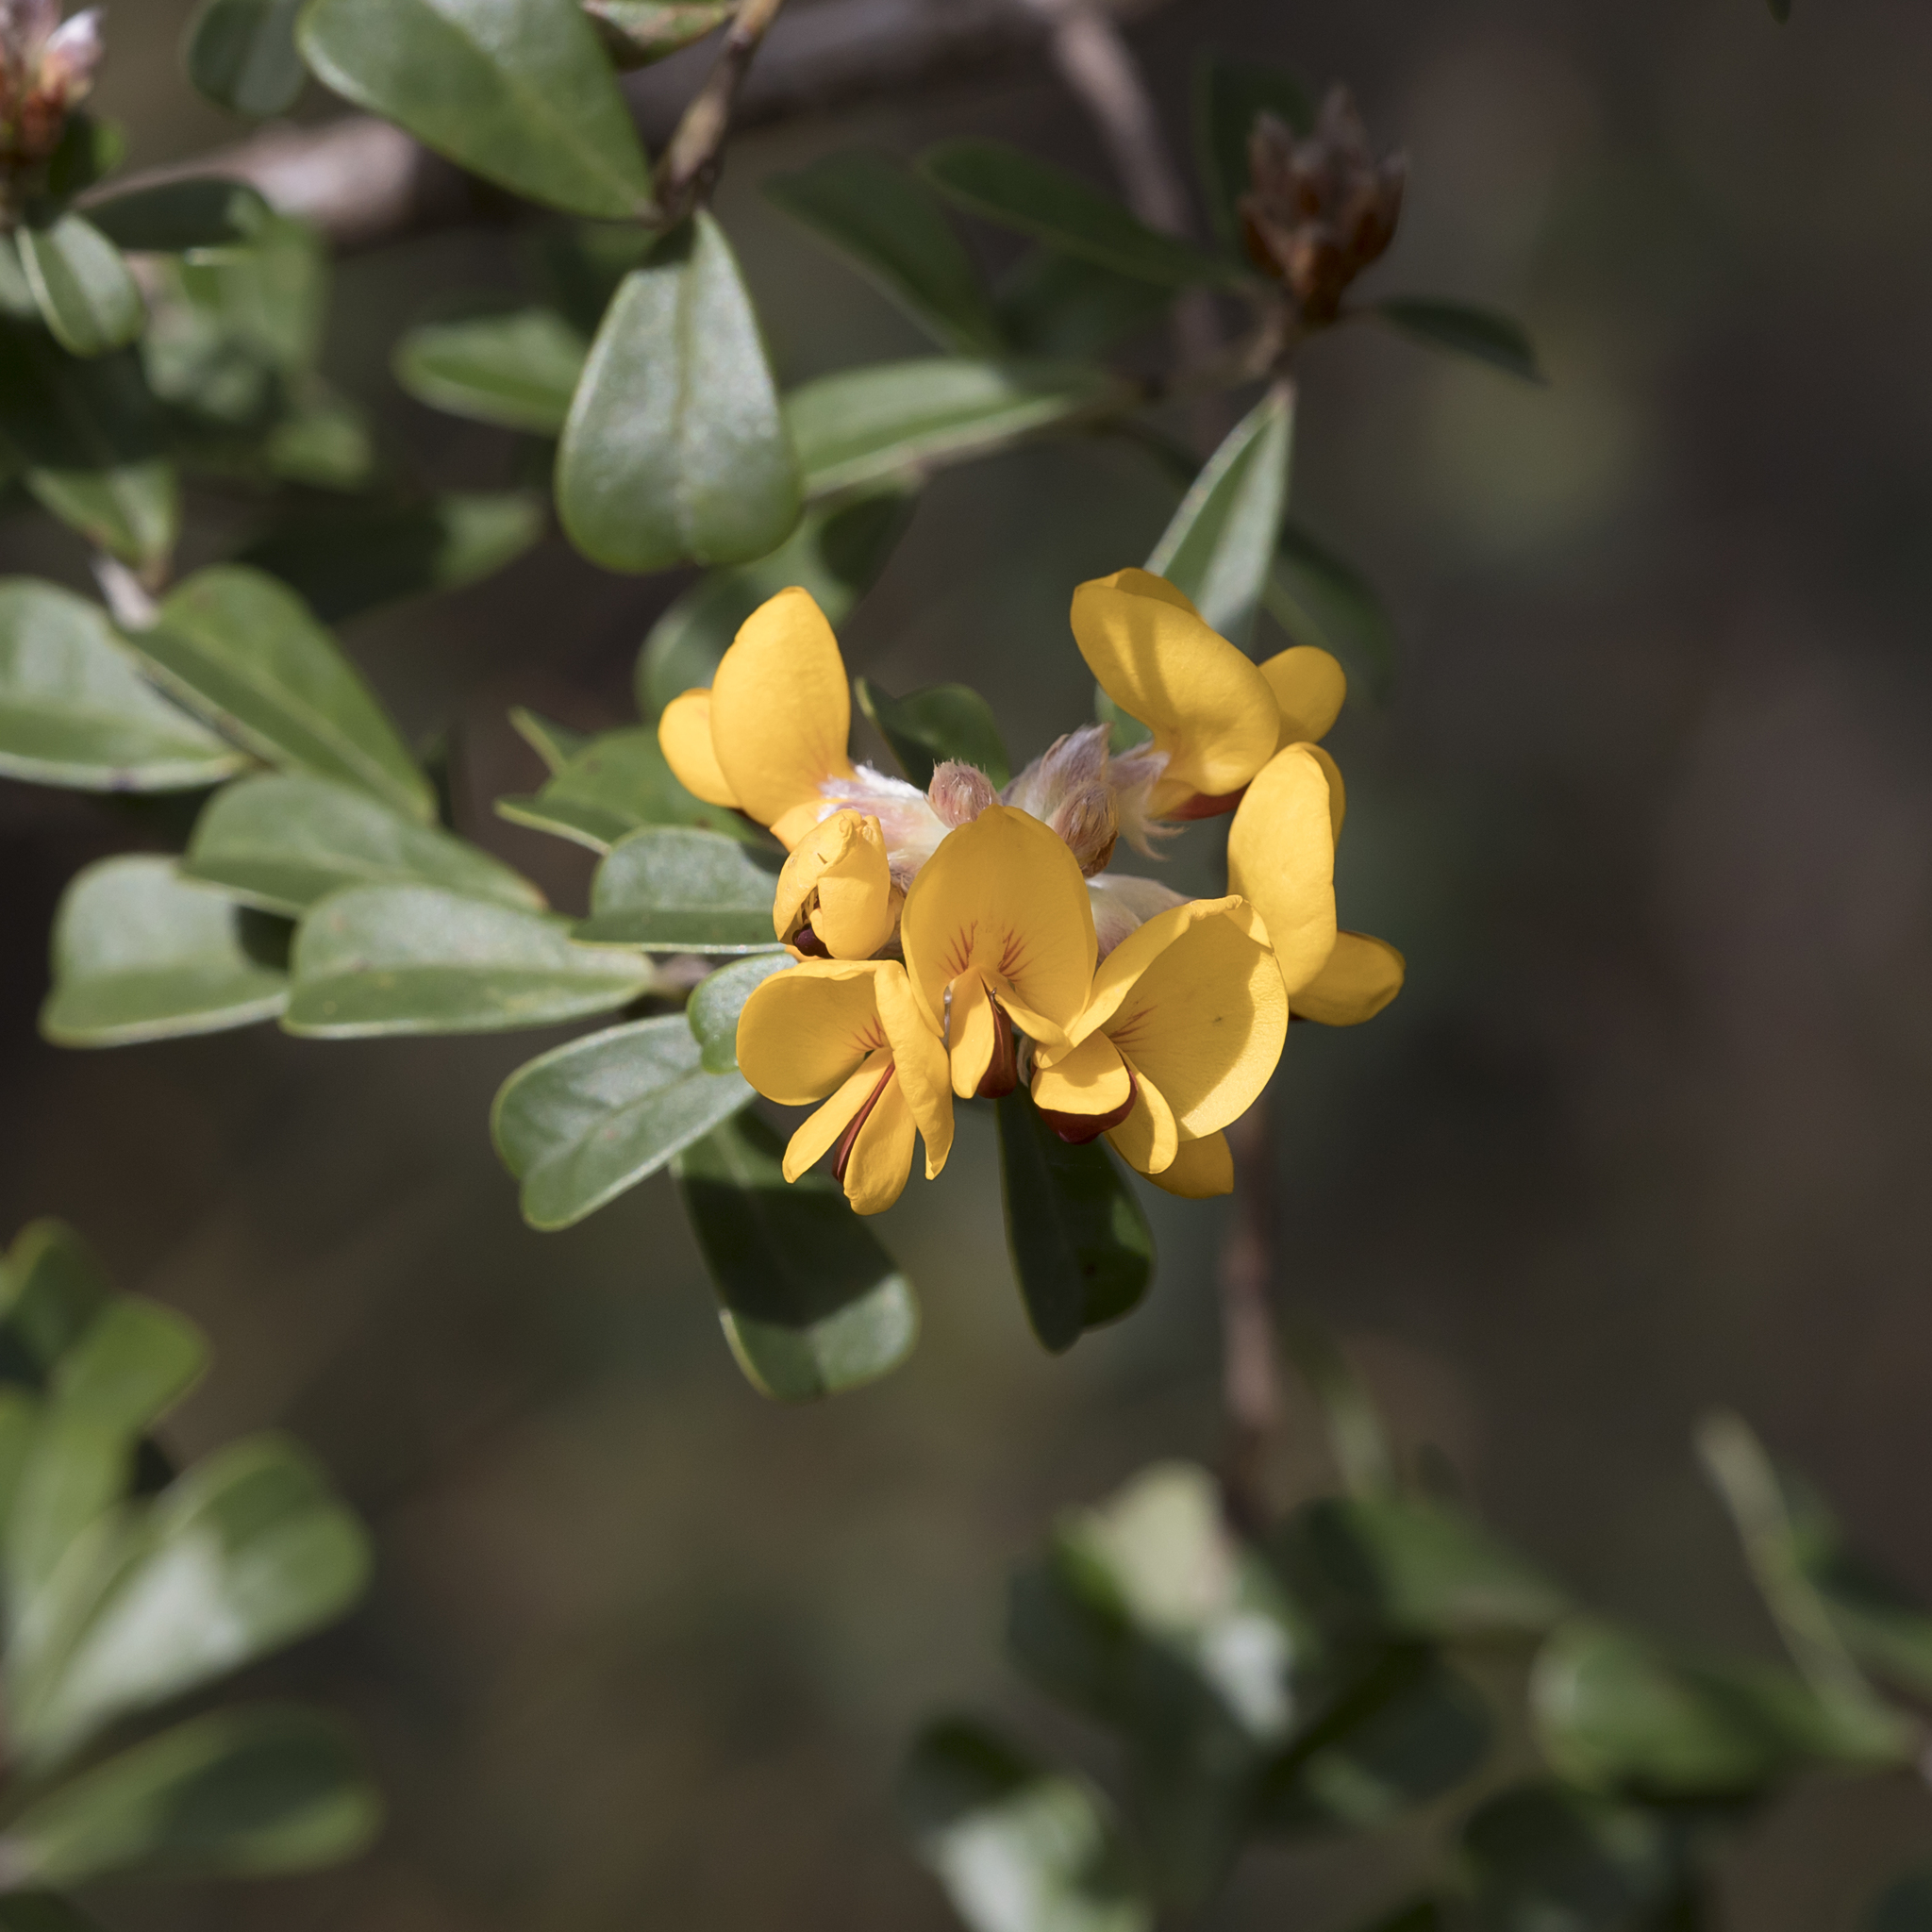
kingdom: Plantae
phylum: Tracheophyta
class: Magnoliopsida
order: Fabales
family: Fabaceae
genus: Pultenaea
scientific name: Pultenaea daphnoides
